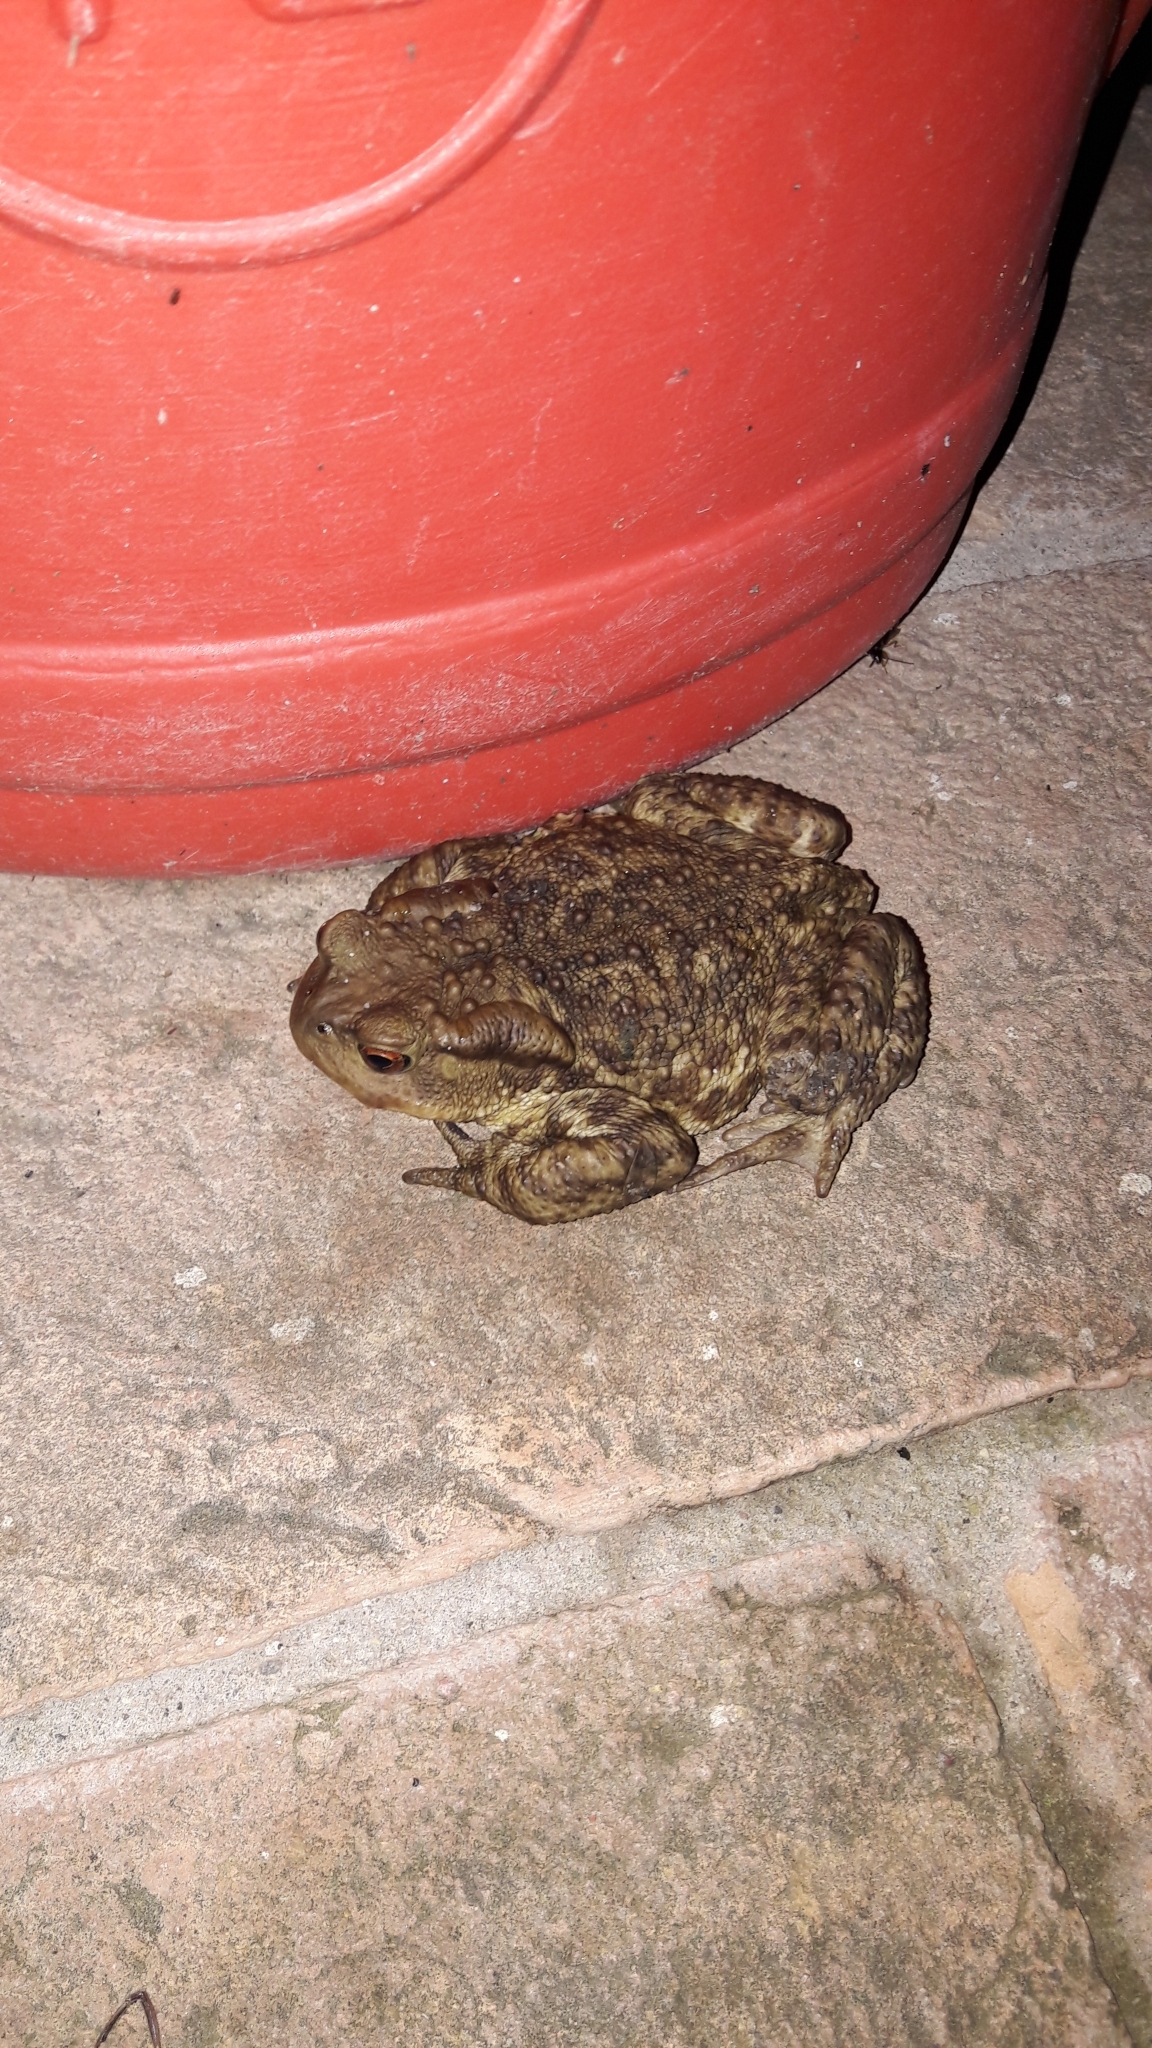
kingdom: Animalia
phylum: Chordata
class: Amphibia
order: Anura
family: Bufonidae
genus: Bufo
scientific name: Bufo bufo
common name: Common toad
